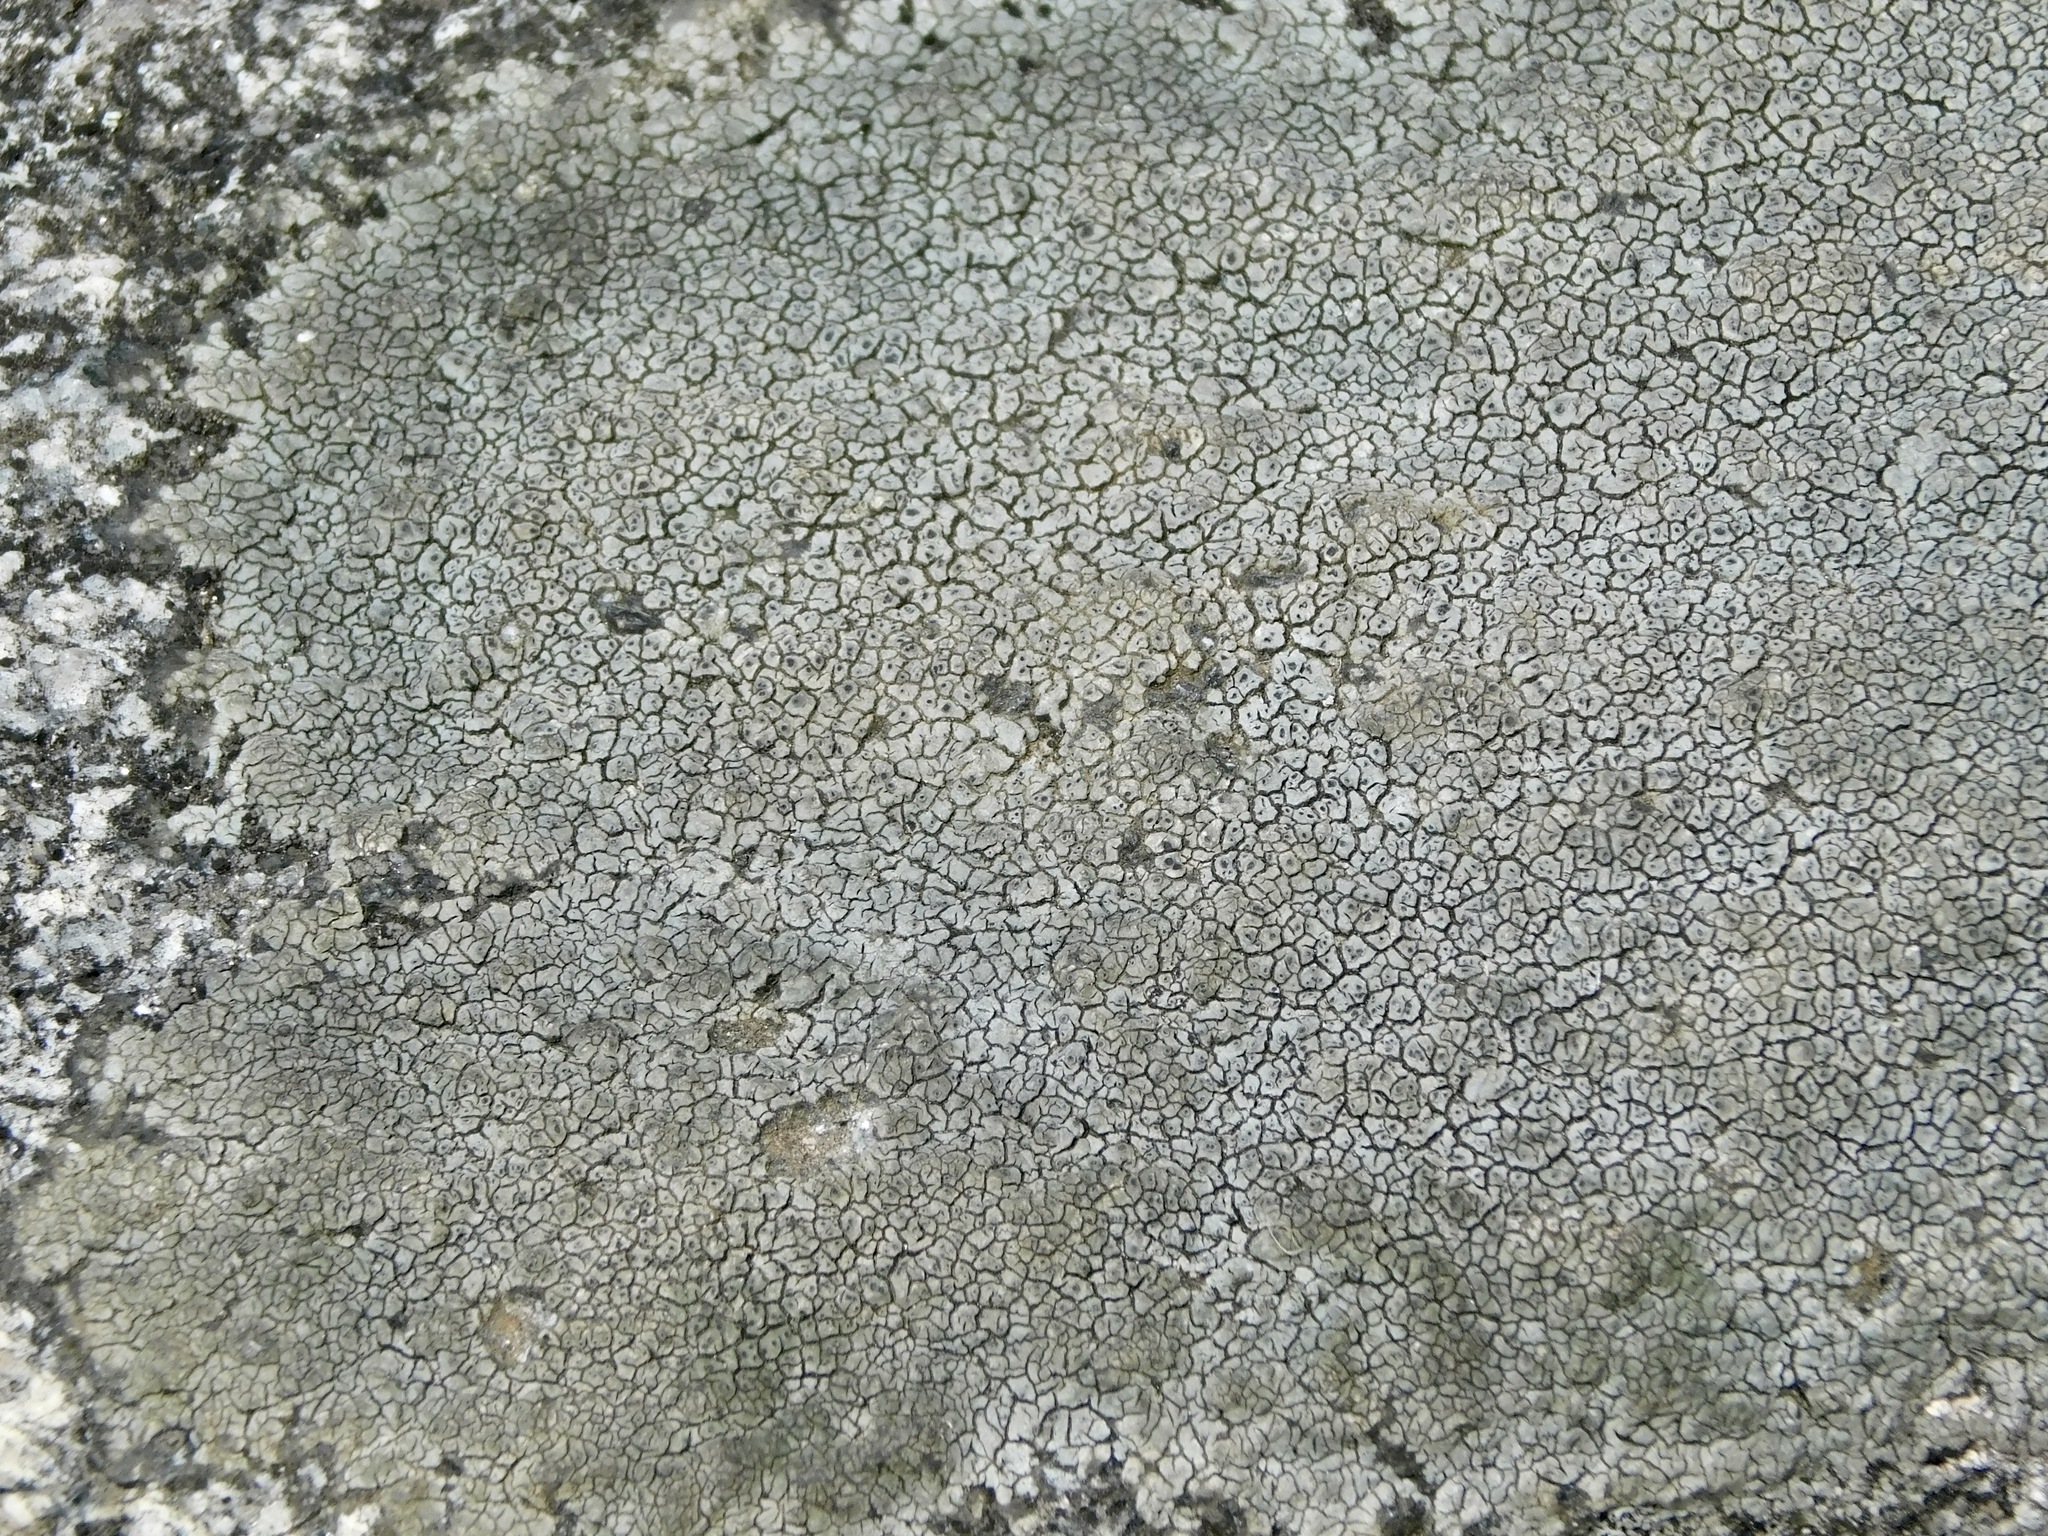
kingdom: Fungi
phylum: Ascomycota
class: Lecanoromycetes
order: Ostropales
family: Graphidaceae
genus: Diploschistes
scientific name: Diploschistes actinostomus
